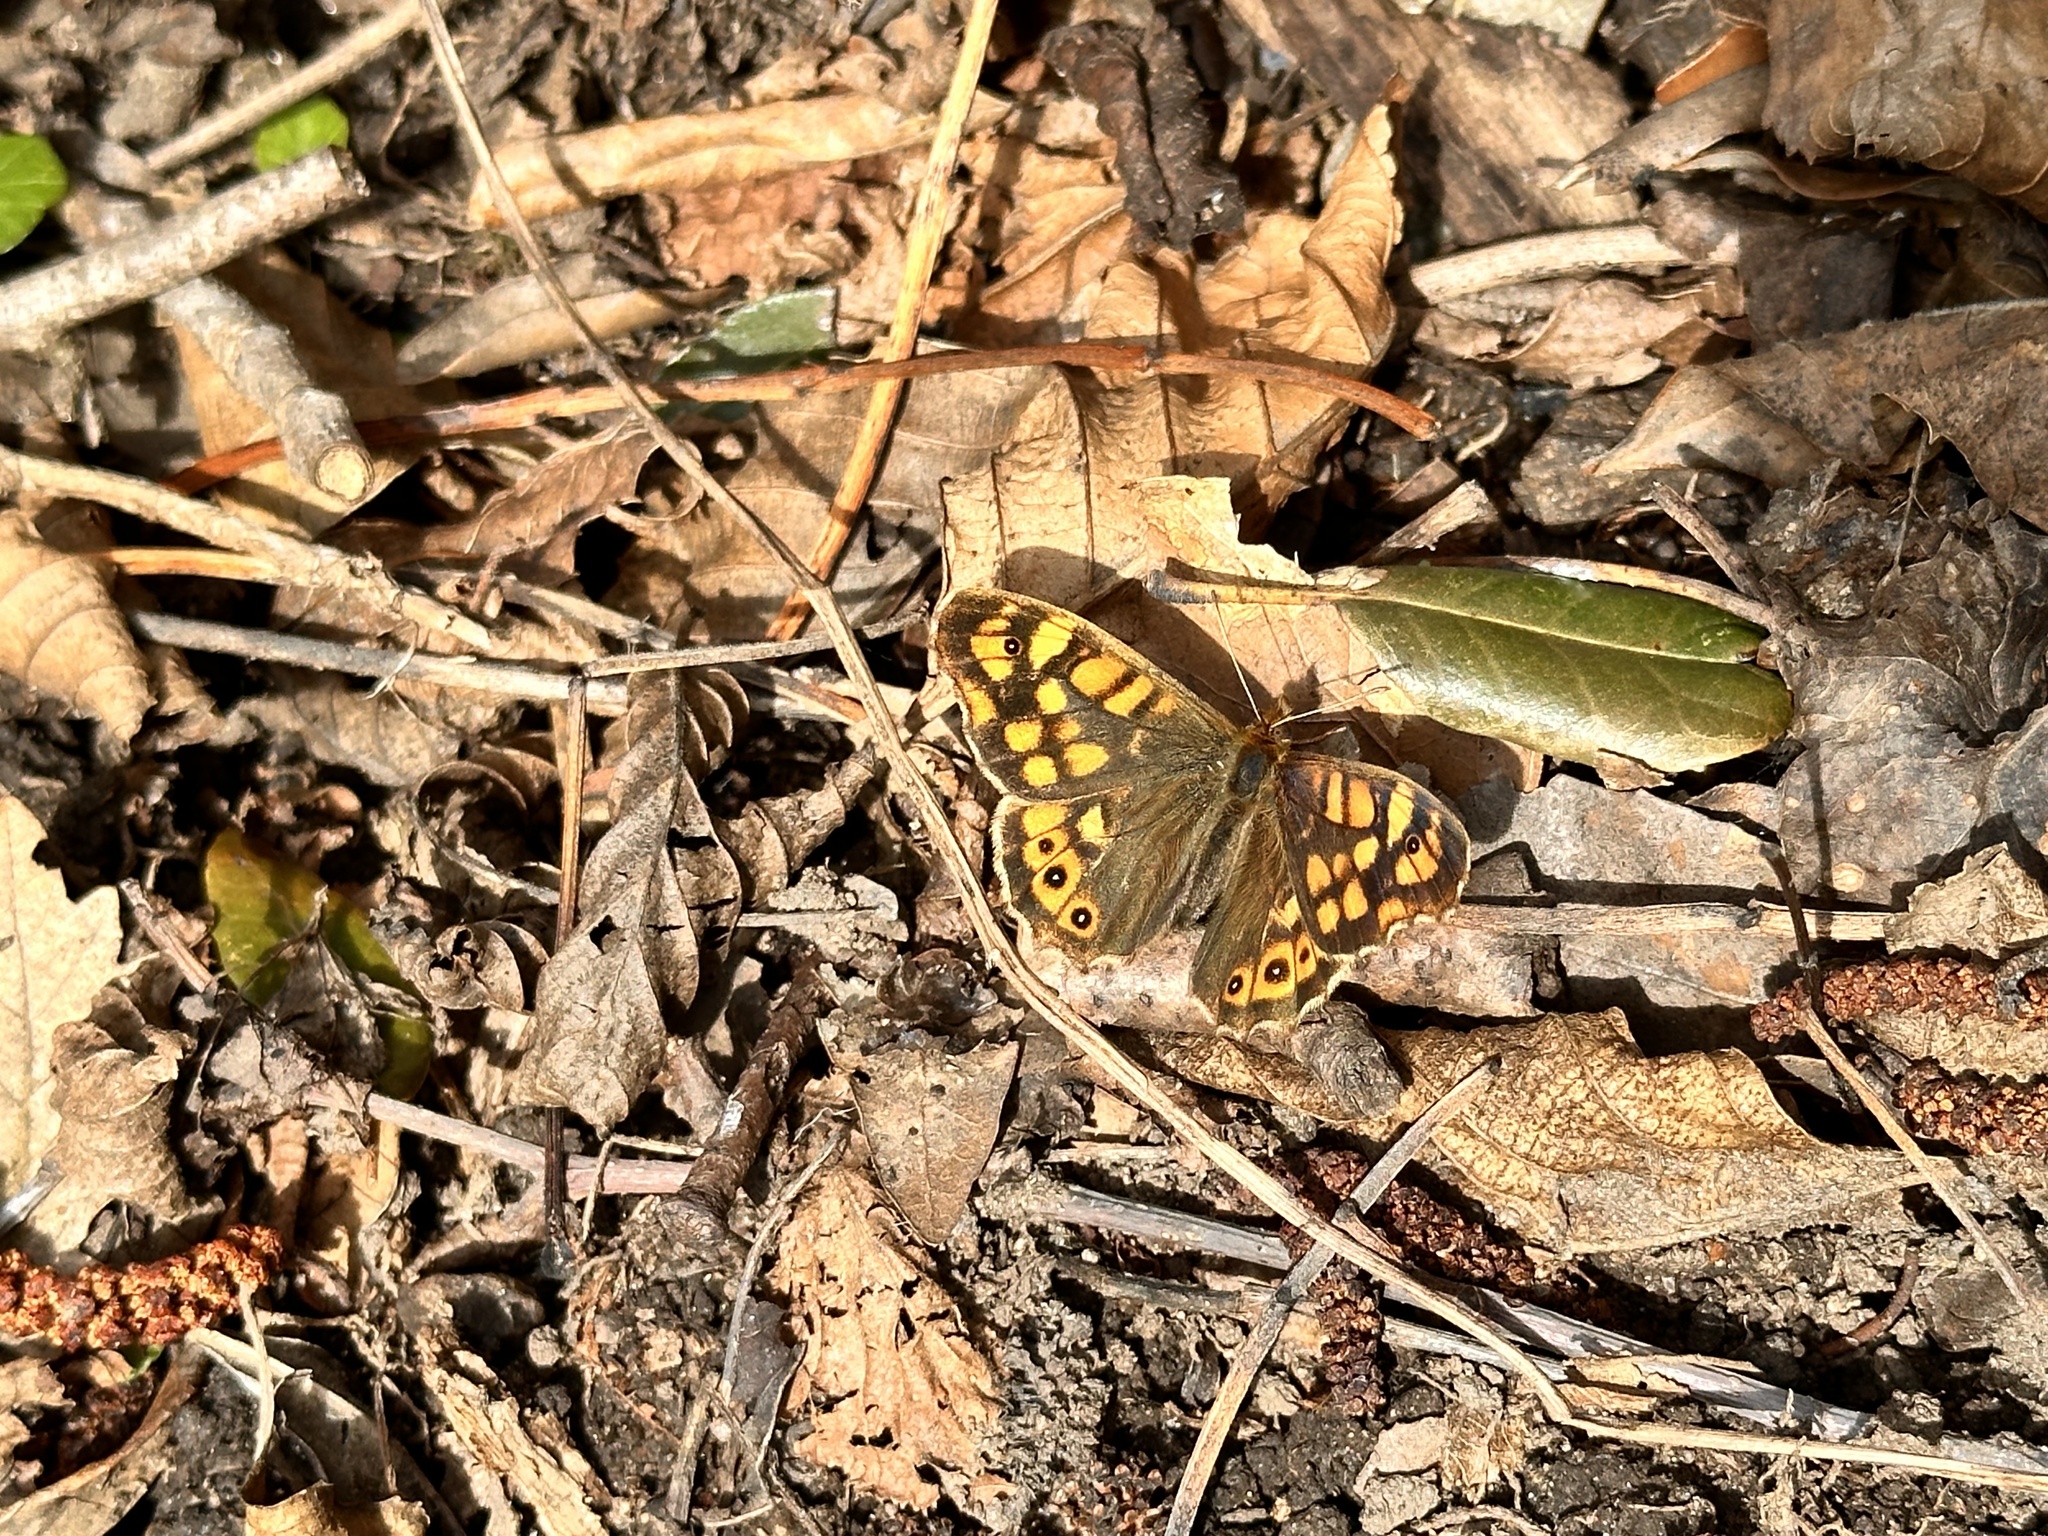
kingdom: Animalia
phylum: Arthropoda
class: Insecta
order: Lepidoptera
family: Nymphalidae
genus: Pararge
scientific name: Pararge aegeria
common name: Speckled wood
